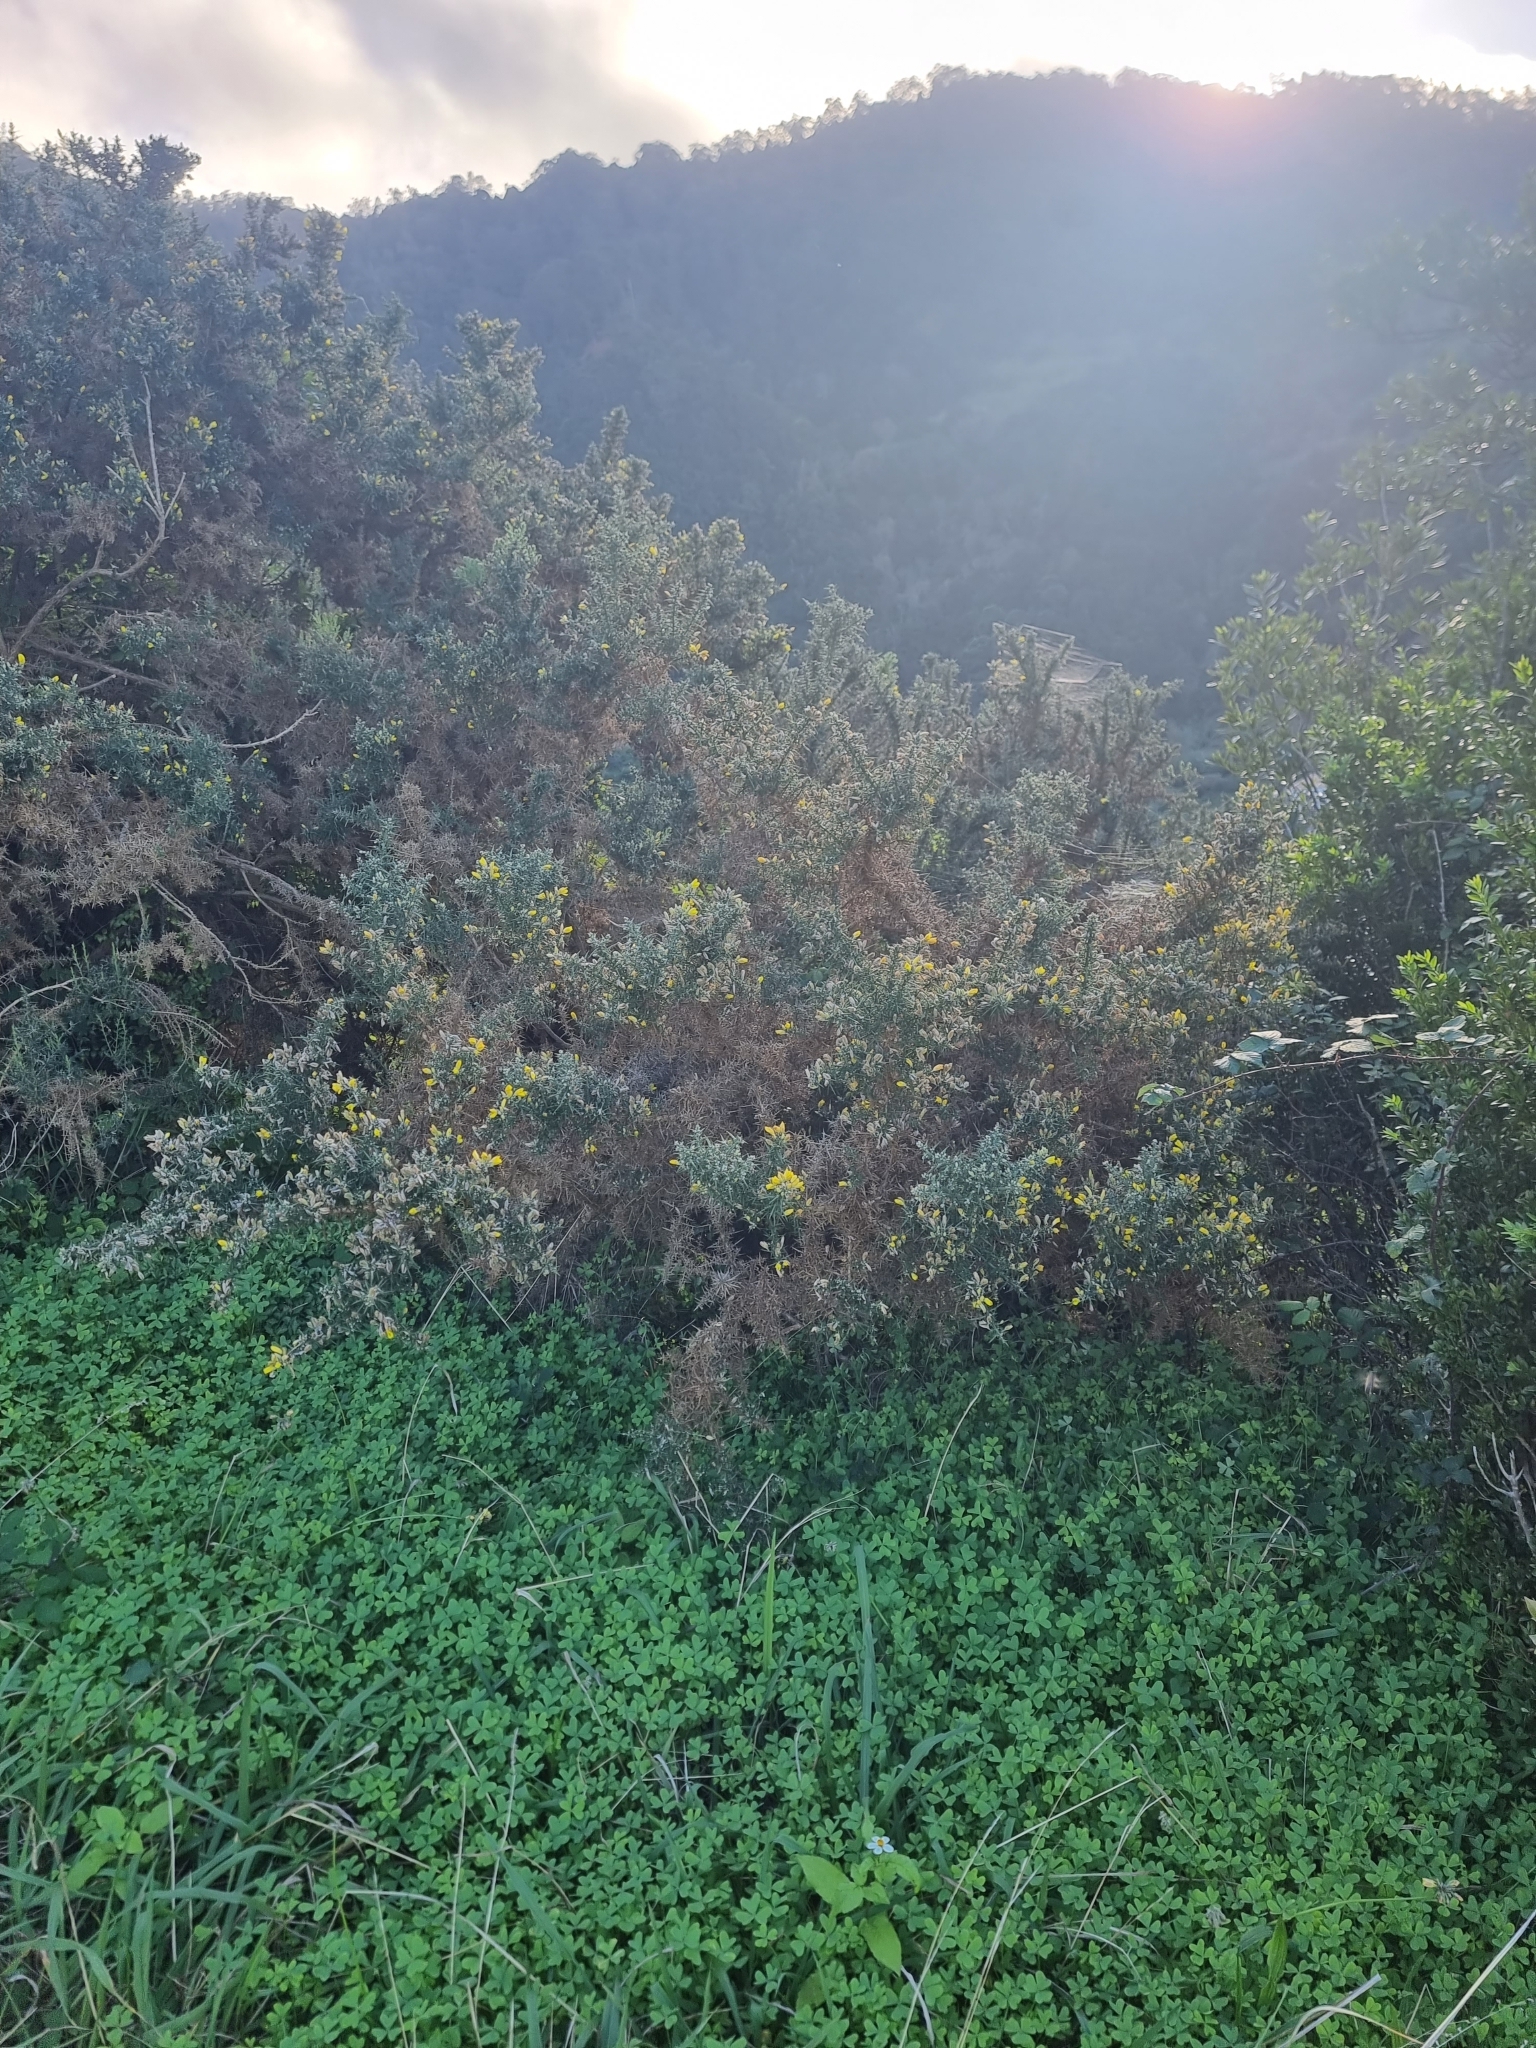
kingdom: Plantae
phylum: Tracheophyta
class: Magnoliopsida
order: Fabales
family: Fabaceae
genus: Ulex
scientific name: Ulex europaeus
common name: Common gorse
